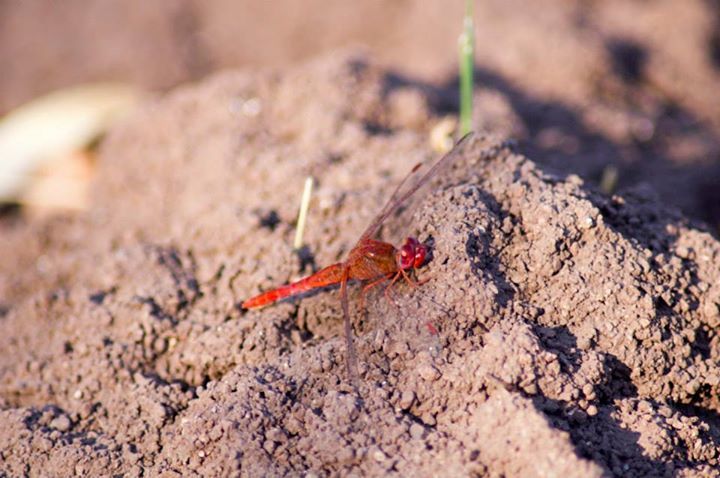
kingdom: Animalia
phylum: Arthropoda
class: Insecta
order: Odonata
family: Libellulidae
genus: Crocothemis
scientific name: Crocothemis sanguinolenta
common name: Little scarlet
